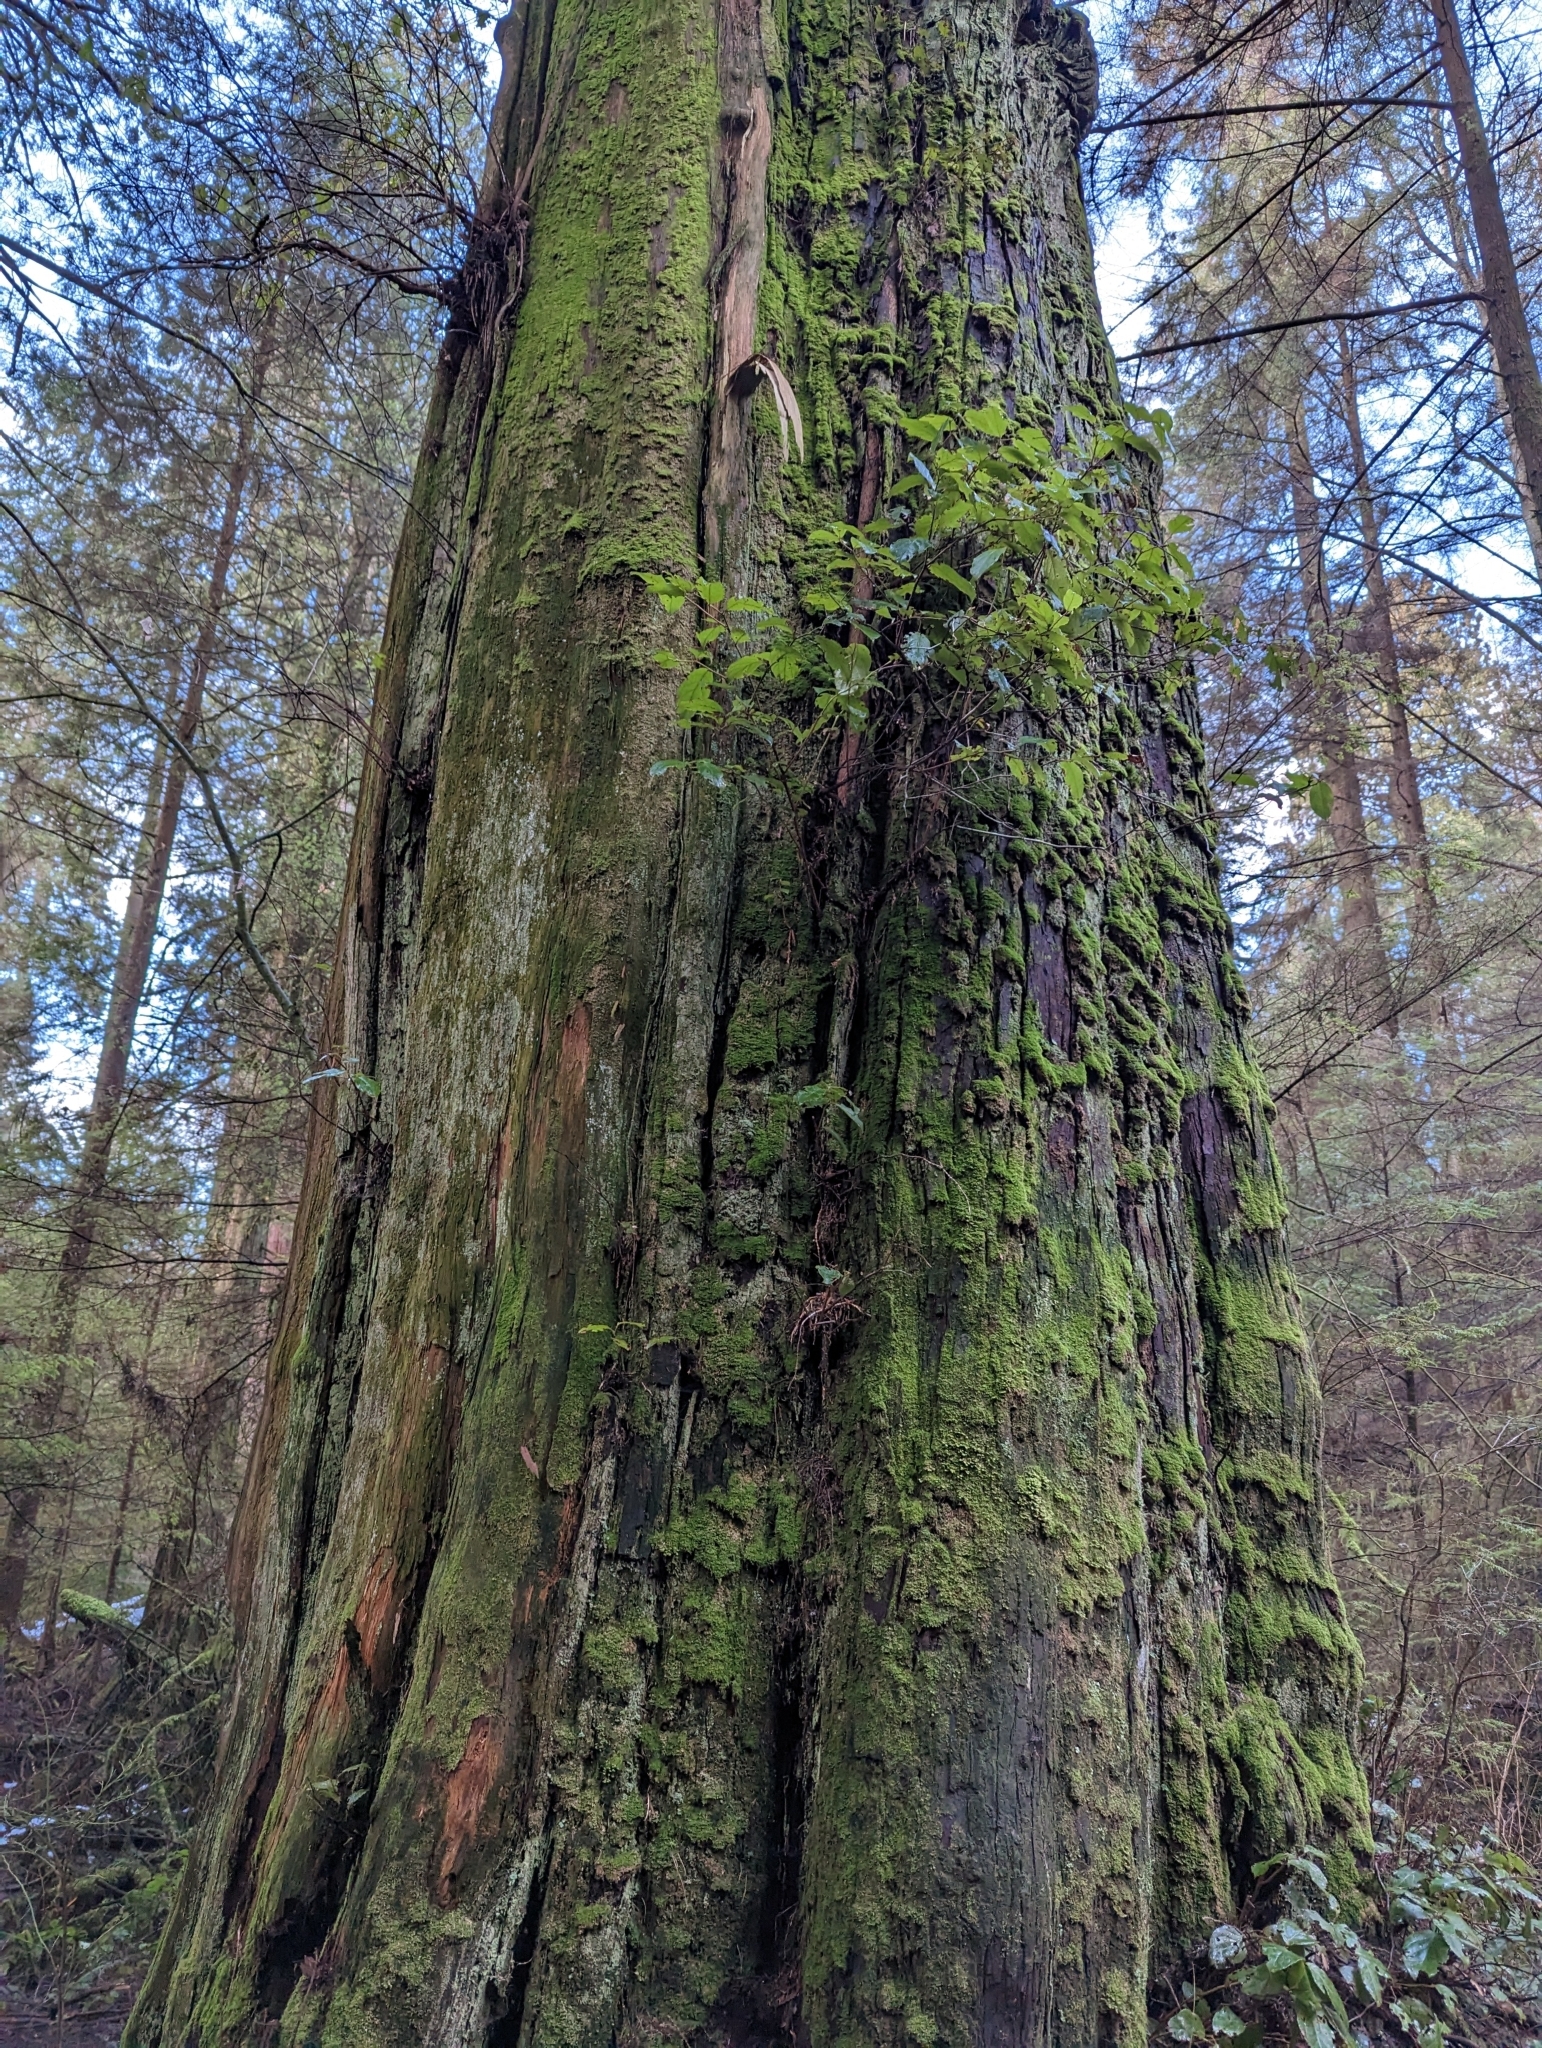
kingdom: Plantae
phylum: Tracheophyta
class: Pinopsida
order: Pinales
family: Cupressaceae
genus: Thuja
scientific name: Thuja plicata
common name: Western red-cedar
